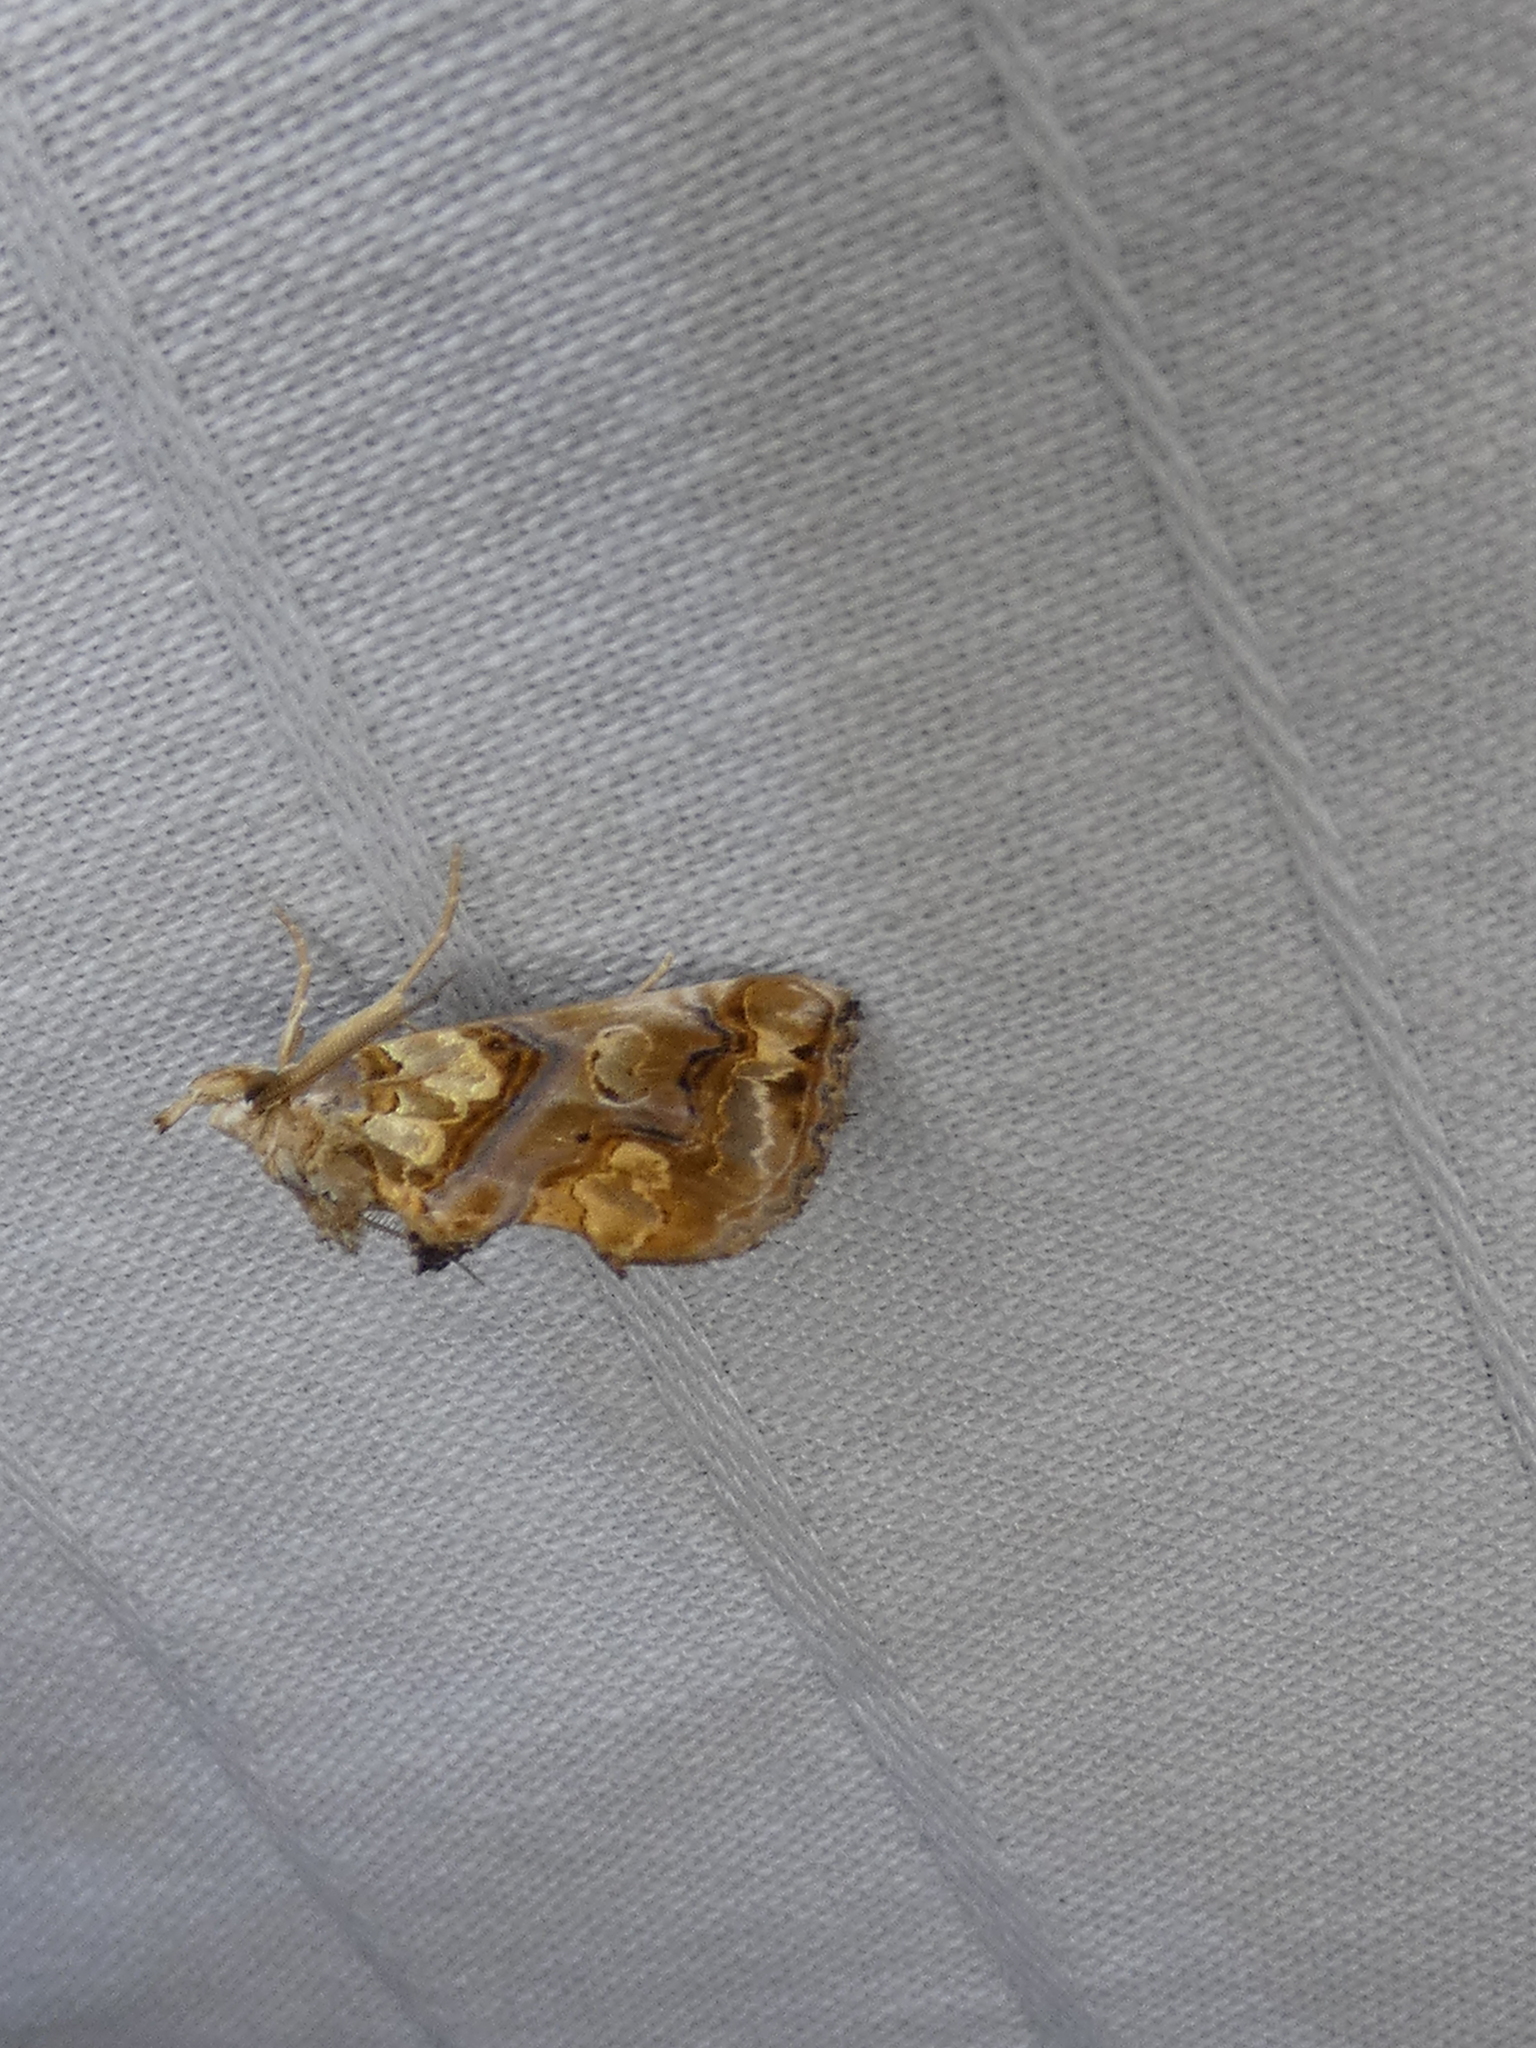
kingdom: Animalia
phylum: Arthropoda
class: Insecta
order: Lepidoptera
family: Erebidae
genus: Plusiodonta
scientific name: Plusiodonta compressipalpis
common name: Moonseed moth
